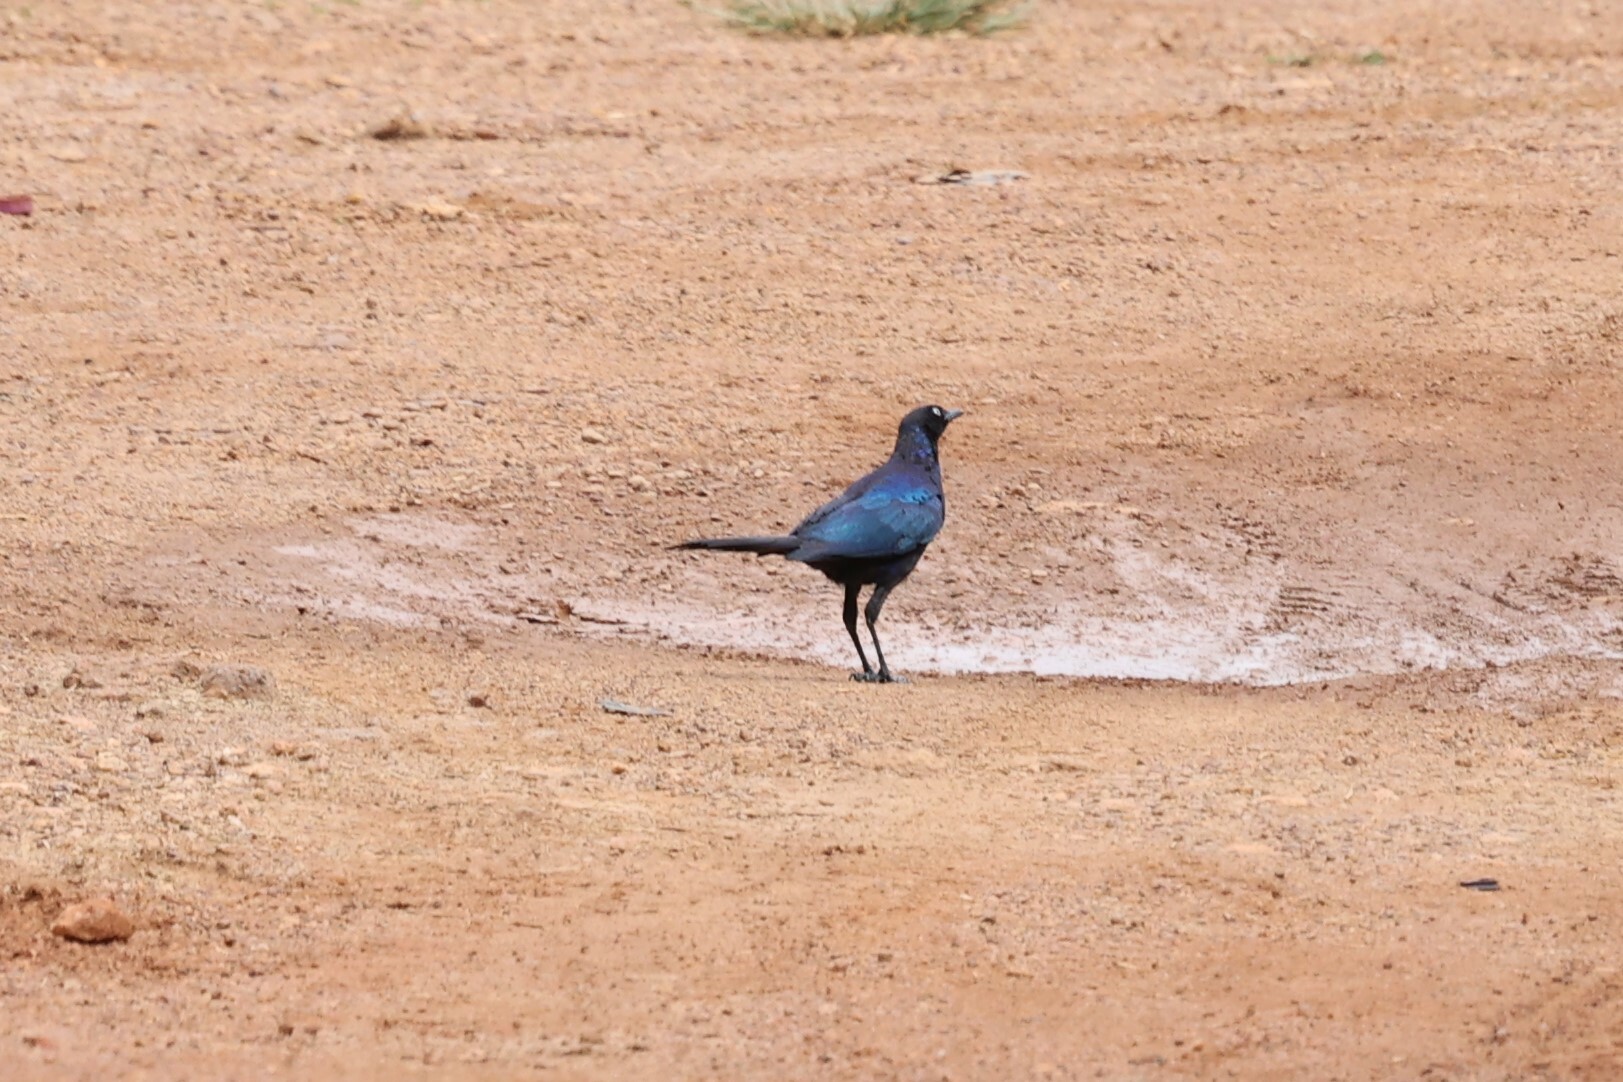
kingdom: Animalia
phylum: Chordata
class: Aves
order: Passeriformes
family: Sturnidae
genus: Lamprotornis
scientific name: Lamprotornis purpuroptera
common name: Rüppell's starling
